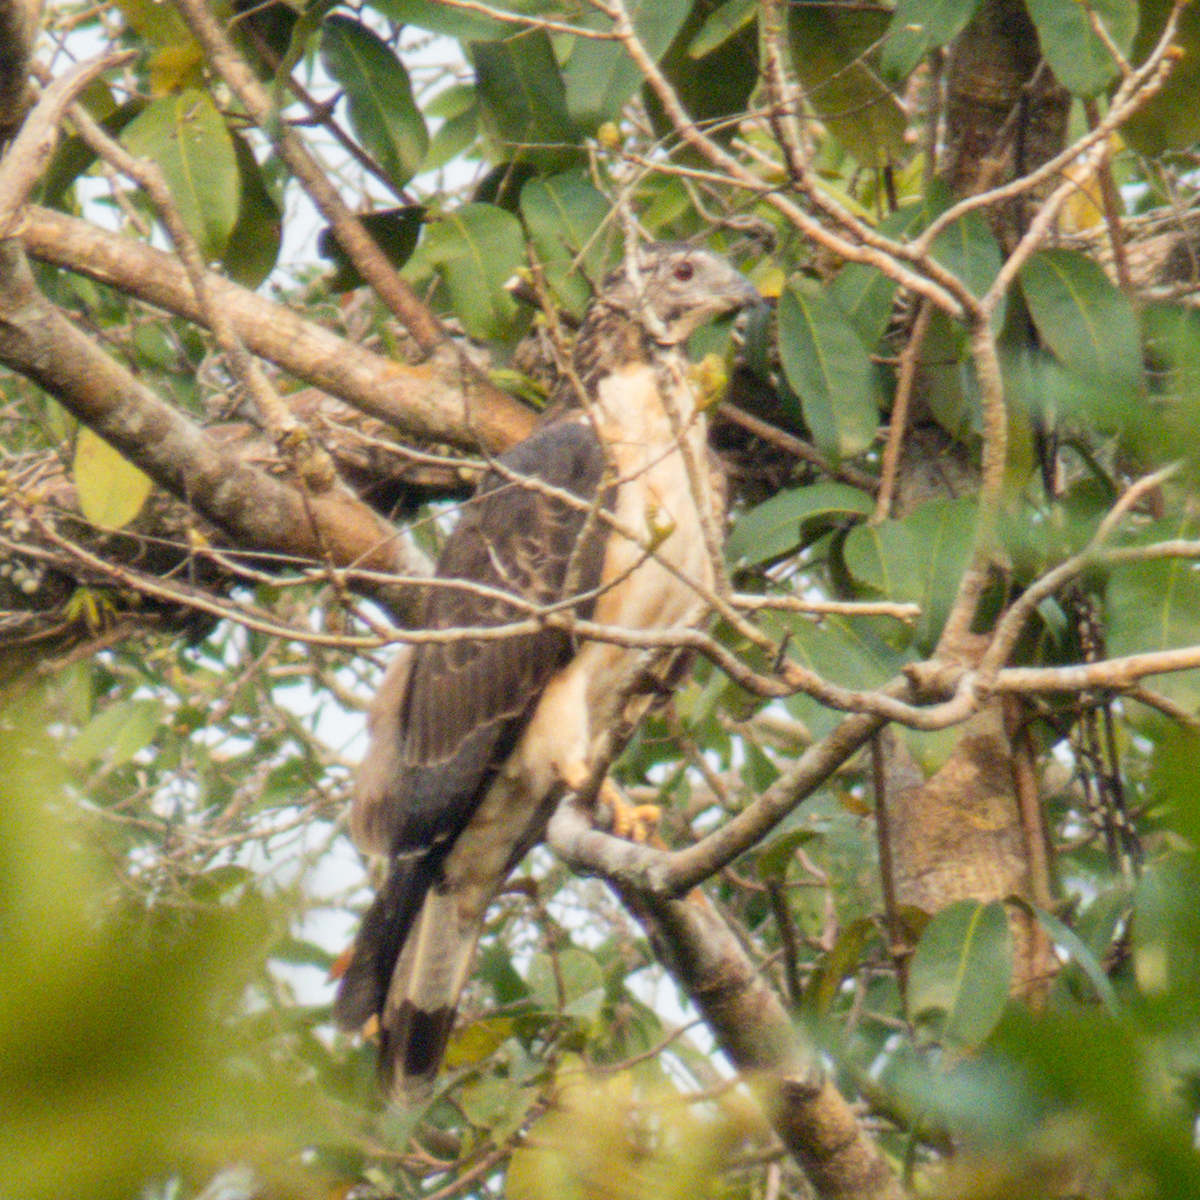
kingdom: Animalia
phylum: Chordata
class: Aves
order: Accipitriformes
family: Accipitridae
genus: Pernis
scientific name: Pernis ptilorhynchus
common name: Crested honey buzzard
